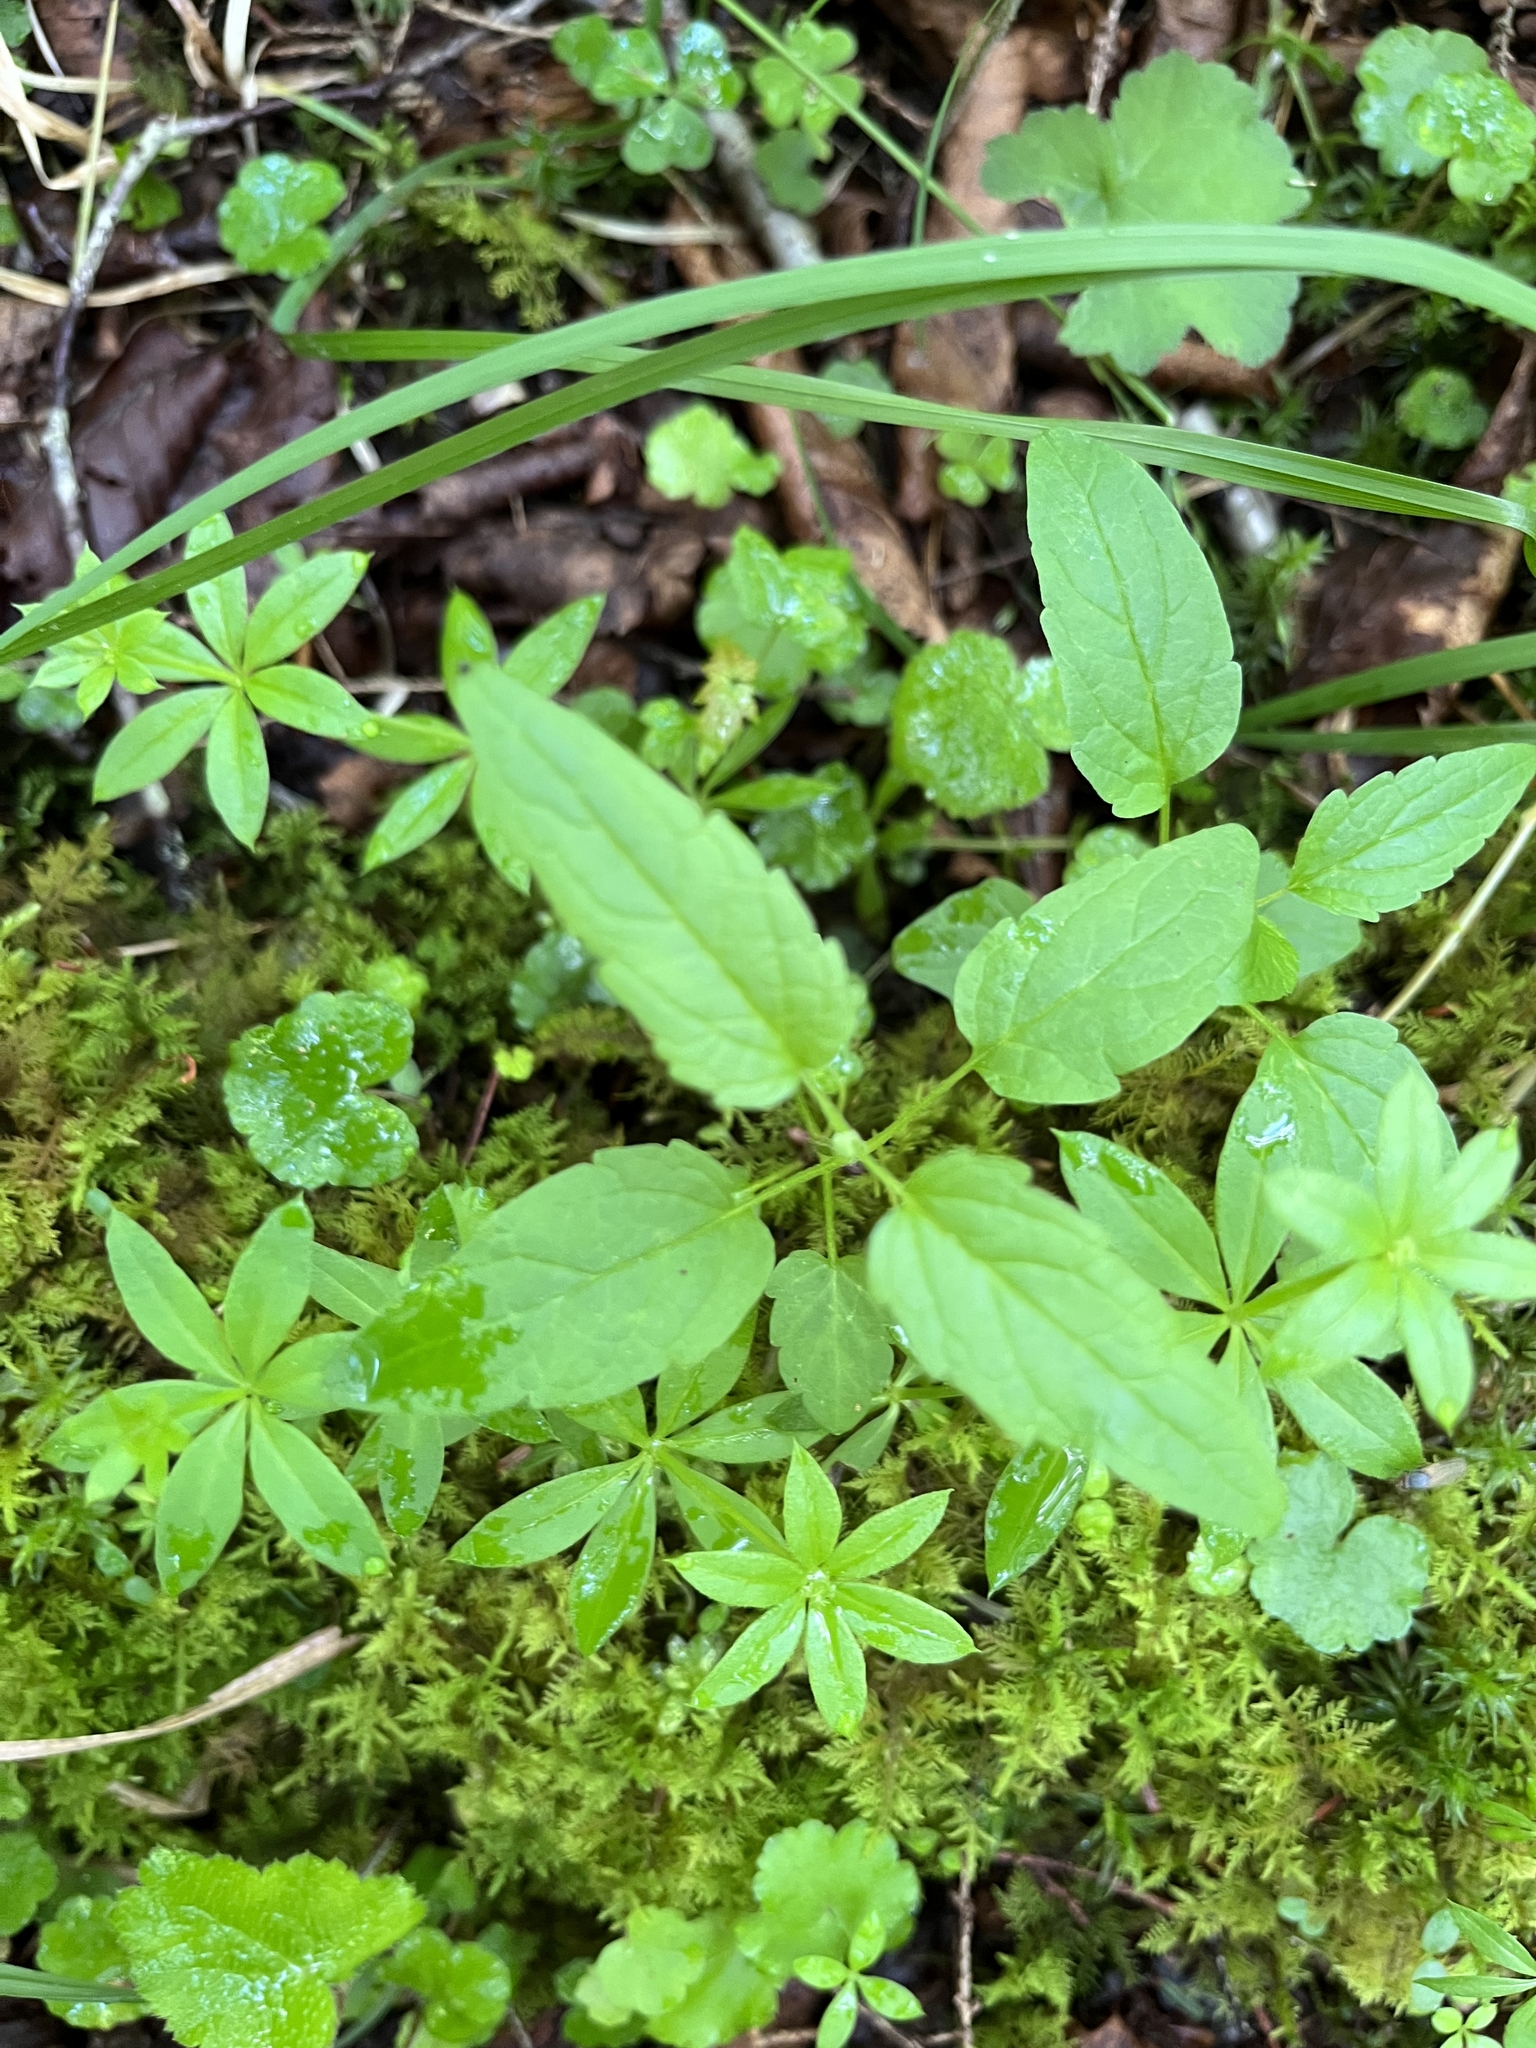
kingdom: Plantae
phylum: Tracheophyta
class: Magnoliopsida
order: Lamiales
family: Lamiaceae
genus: Scutellaria
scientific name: Scutellaria lateriflora
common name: Blue skullcap
